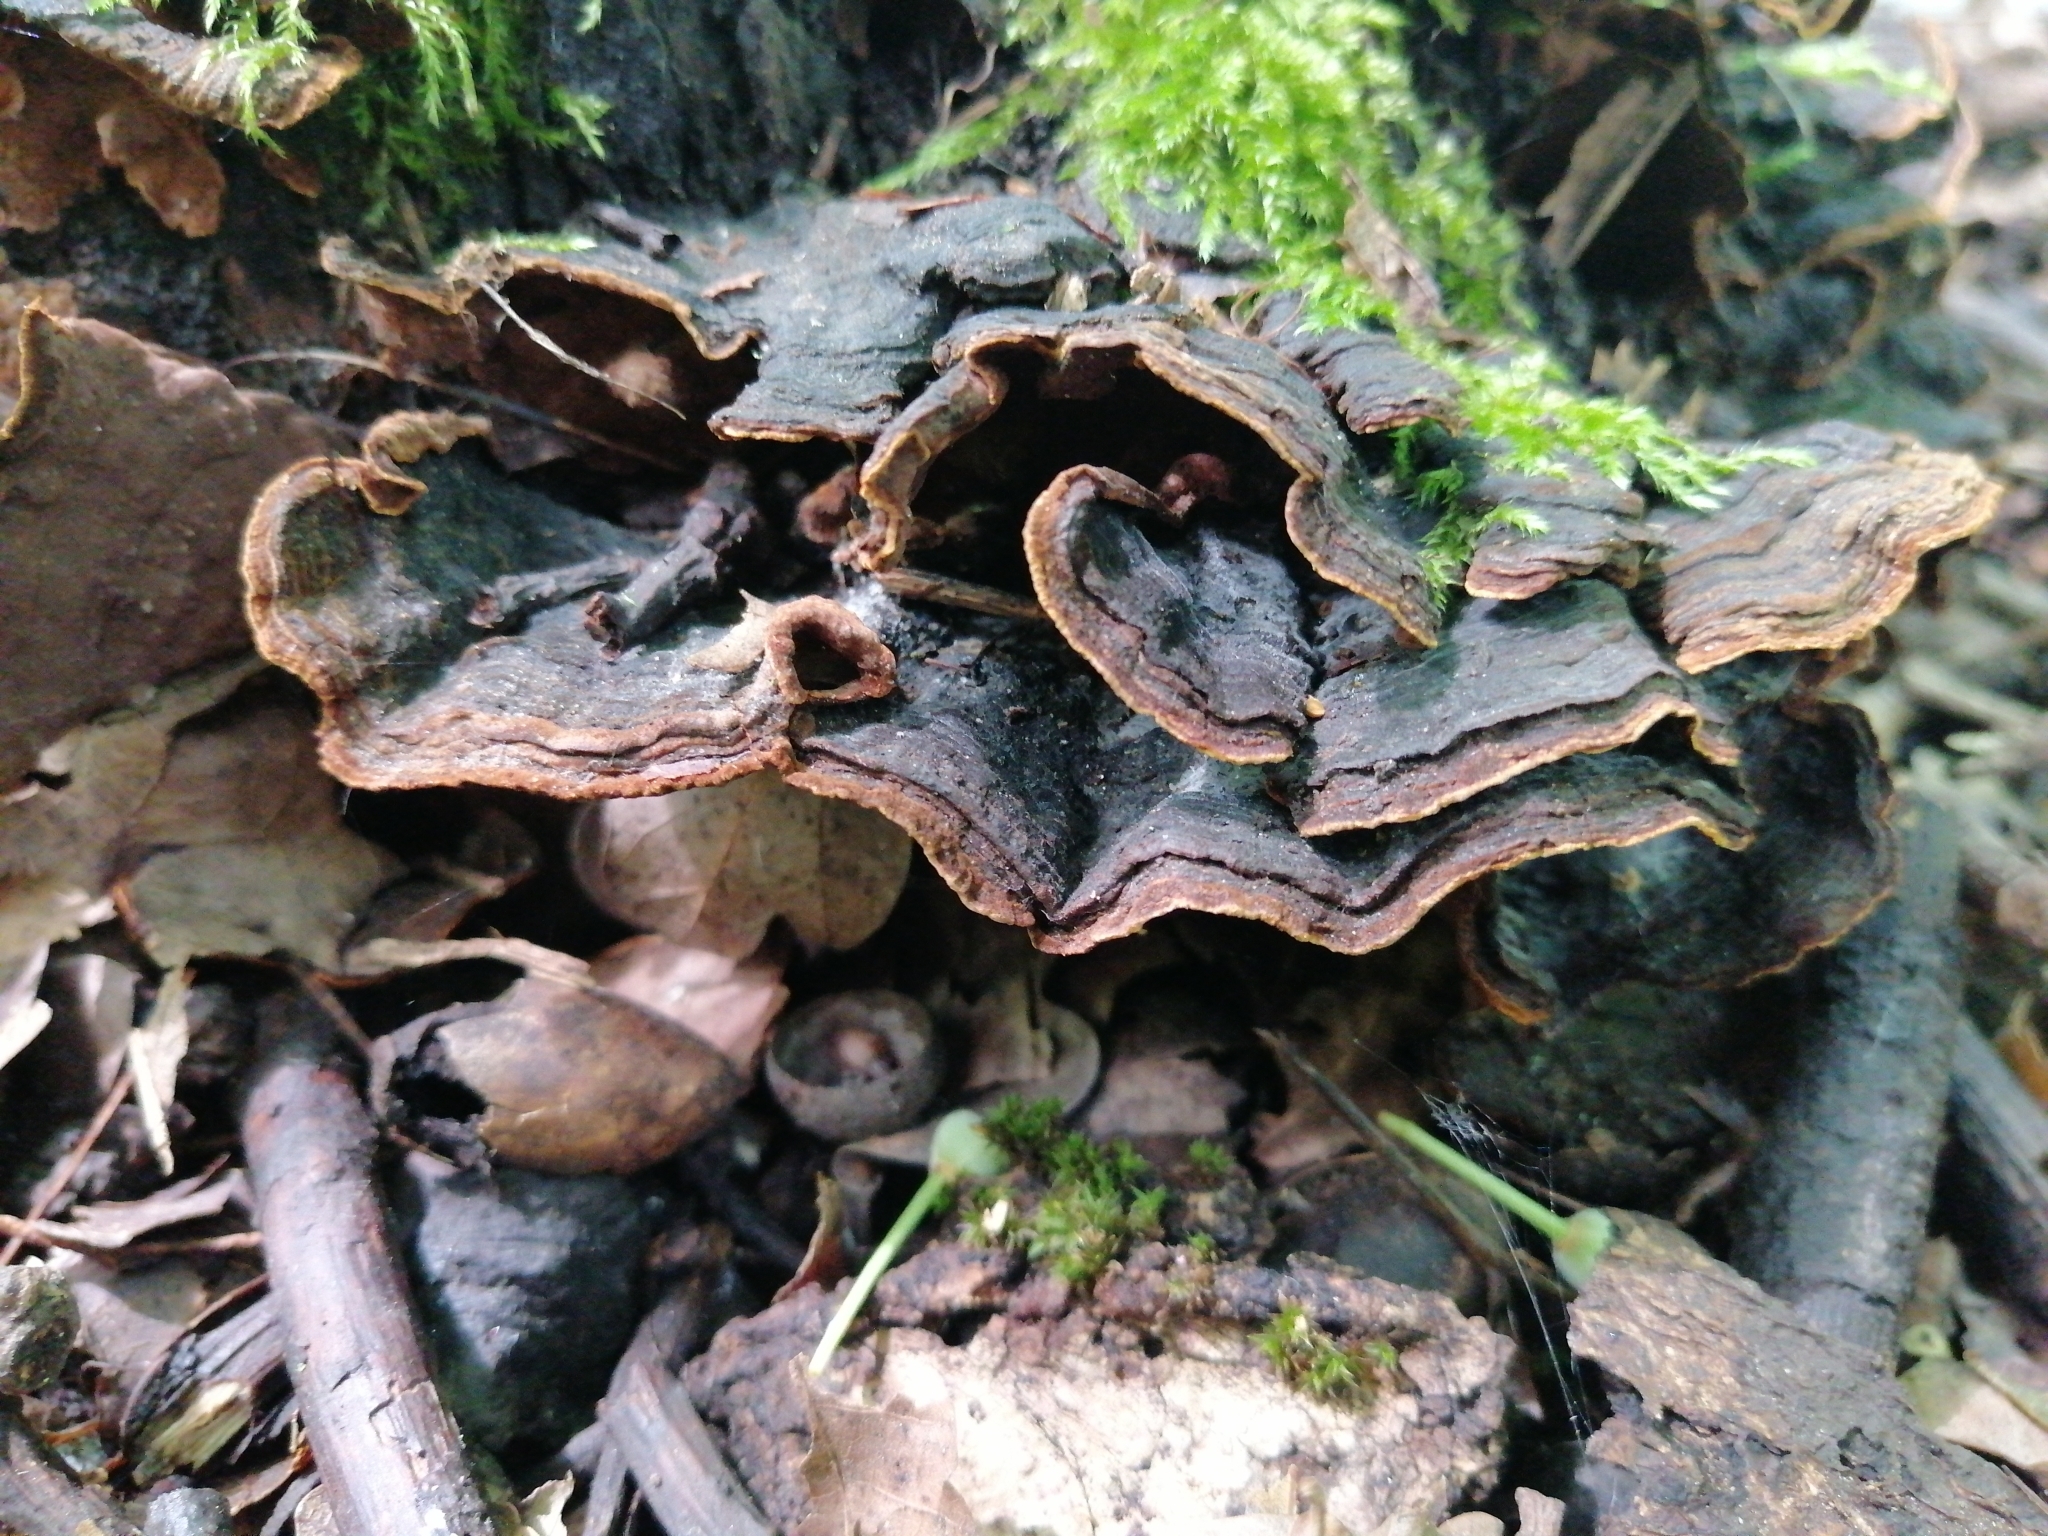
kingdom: Fungi
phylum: Basidiomycota
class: Agaricomycetes
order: Hymenochaetales
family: Hymenochaetaceae
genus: Hymenochaete
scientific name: Hymenochaete rubiginosa
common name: Oak curtain crust
